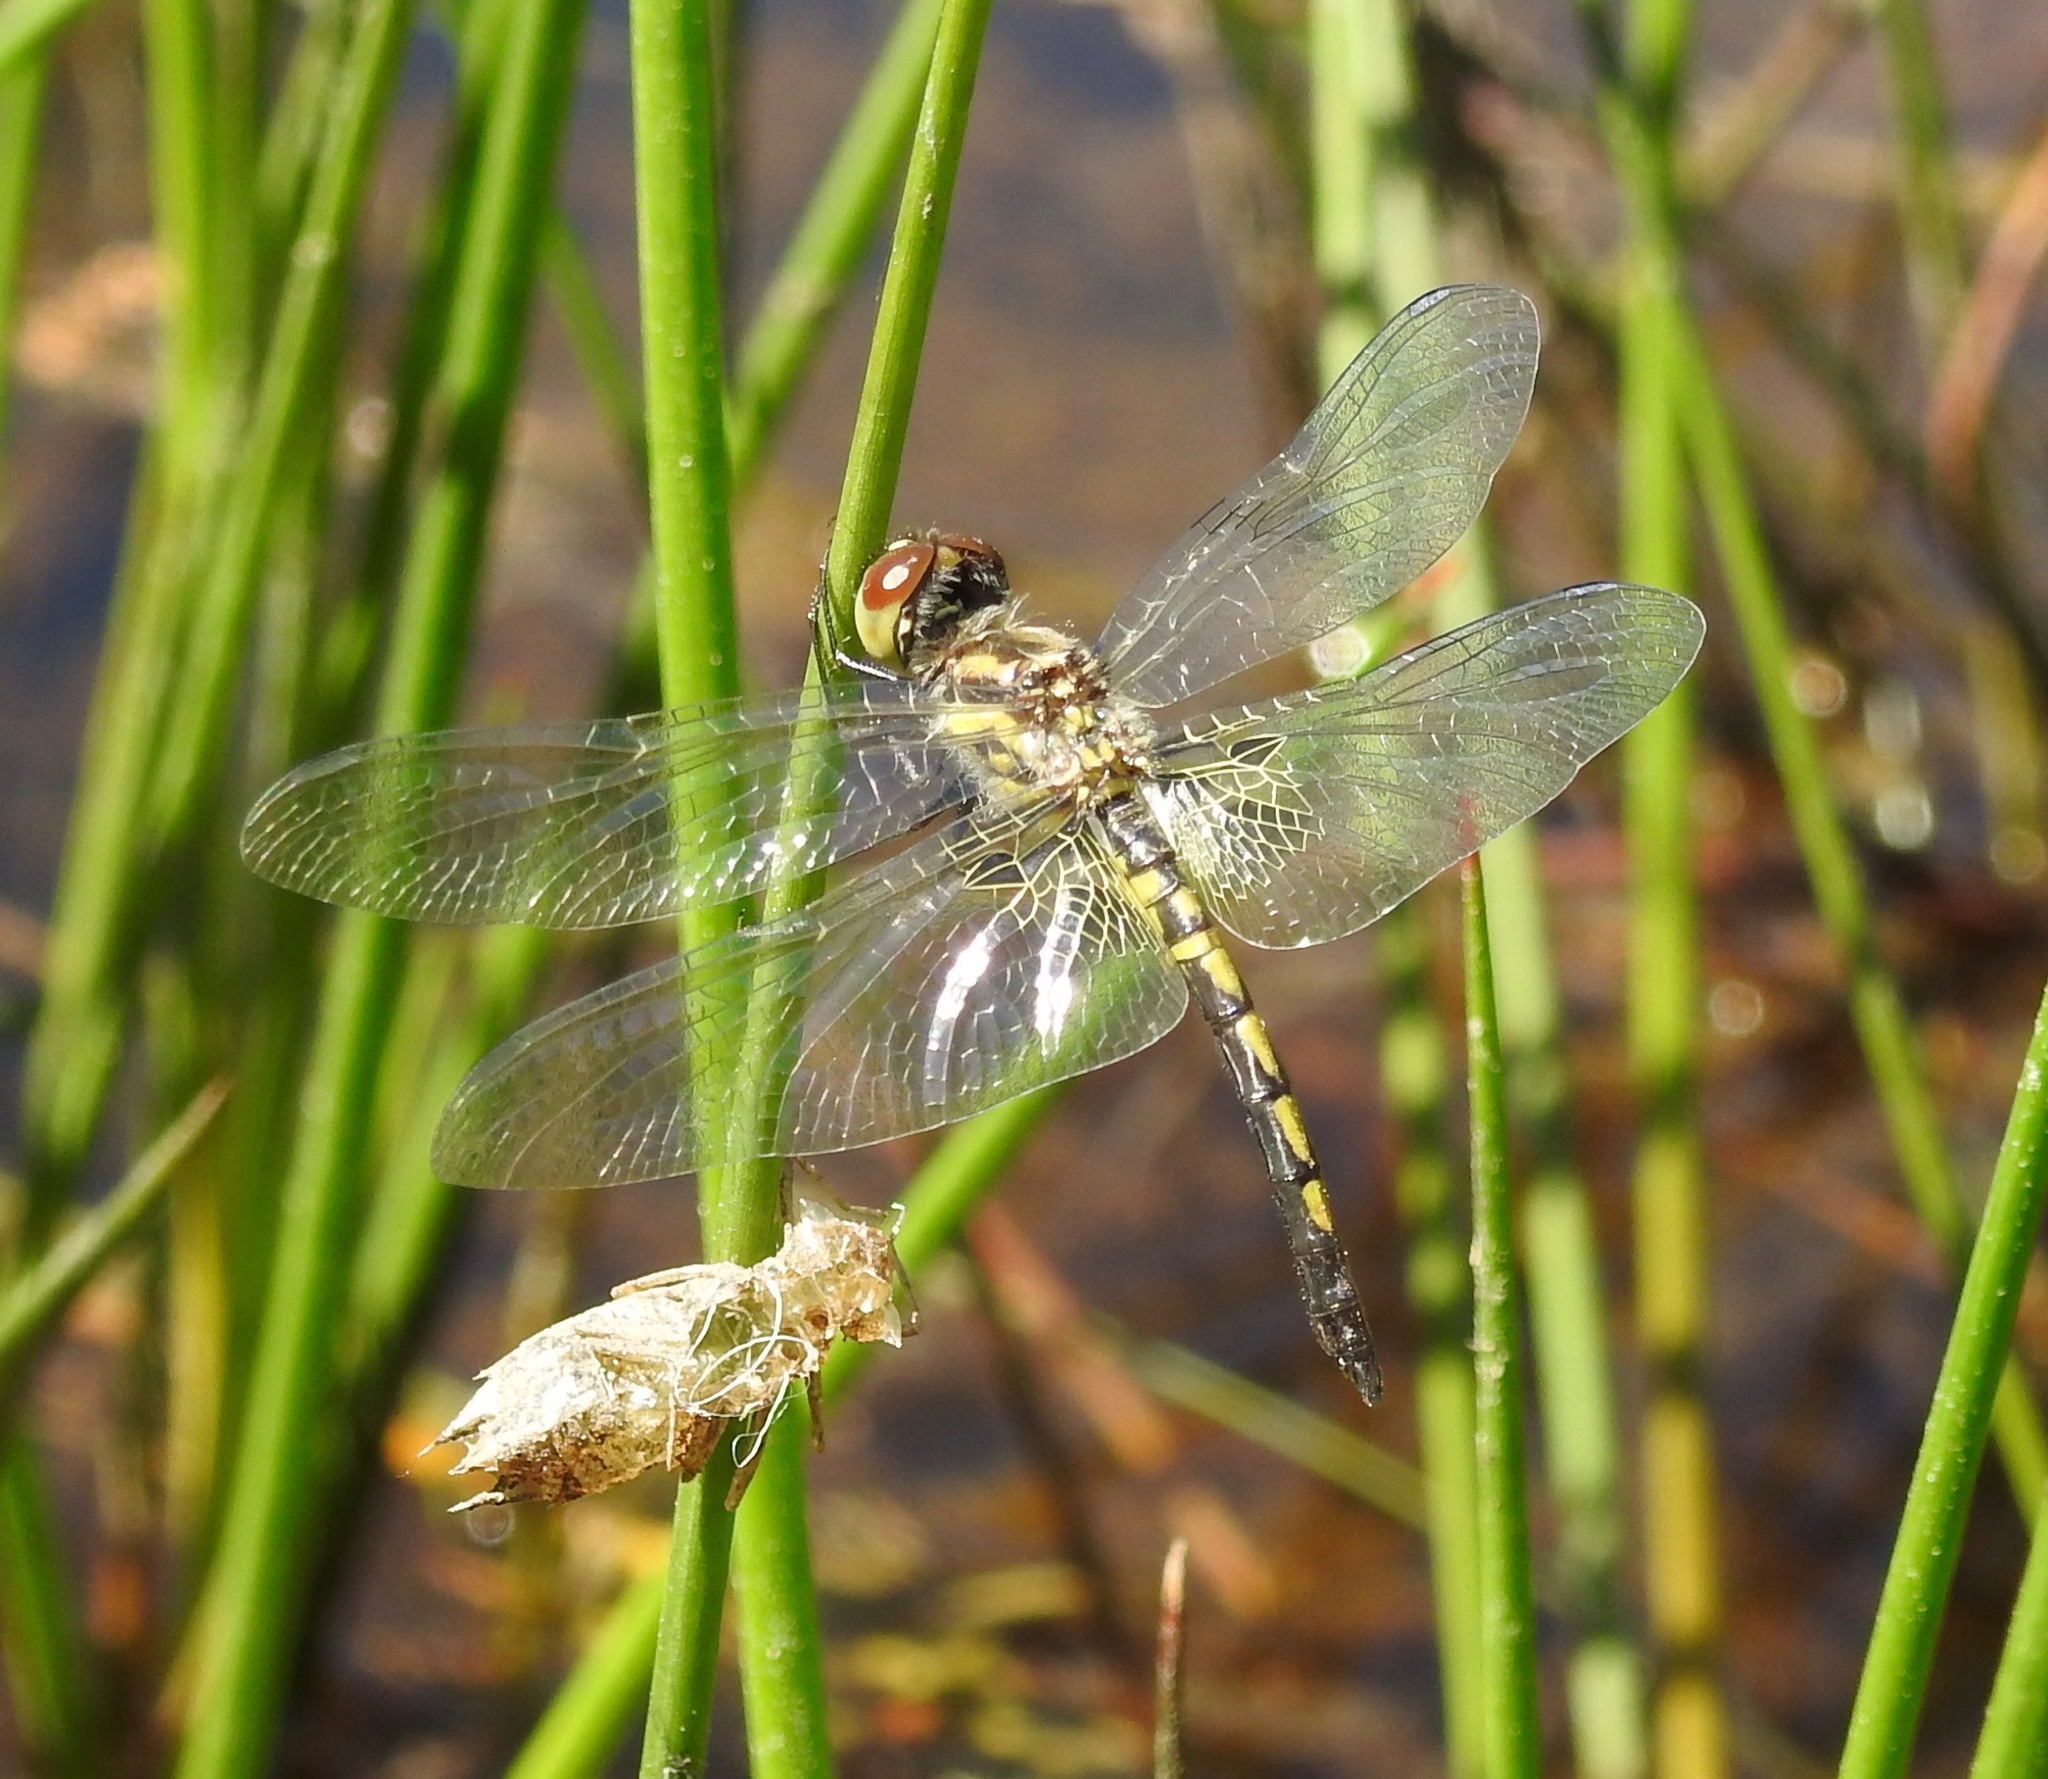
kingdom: Animalia
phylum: Arthropoda
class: Insecta
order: Odonata
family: Libellulidae
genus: Celithemis
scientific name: Celithemis ornata
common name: Ornate pennant
